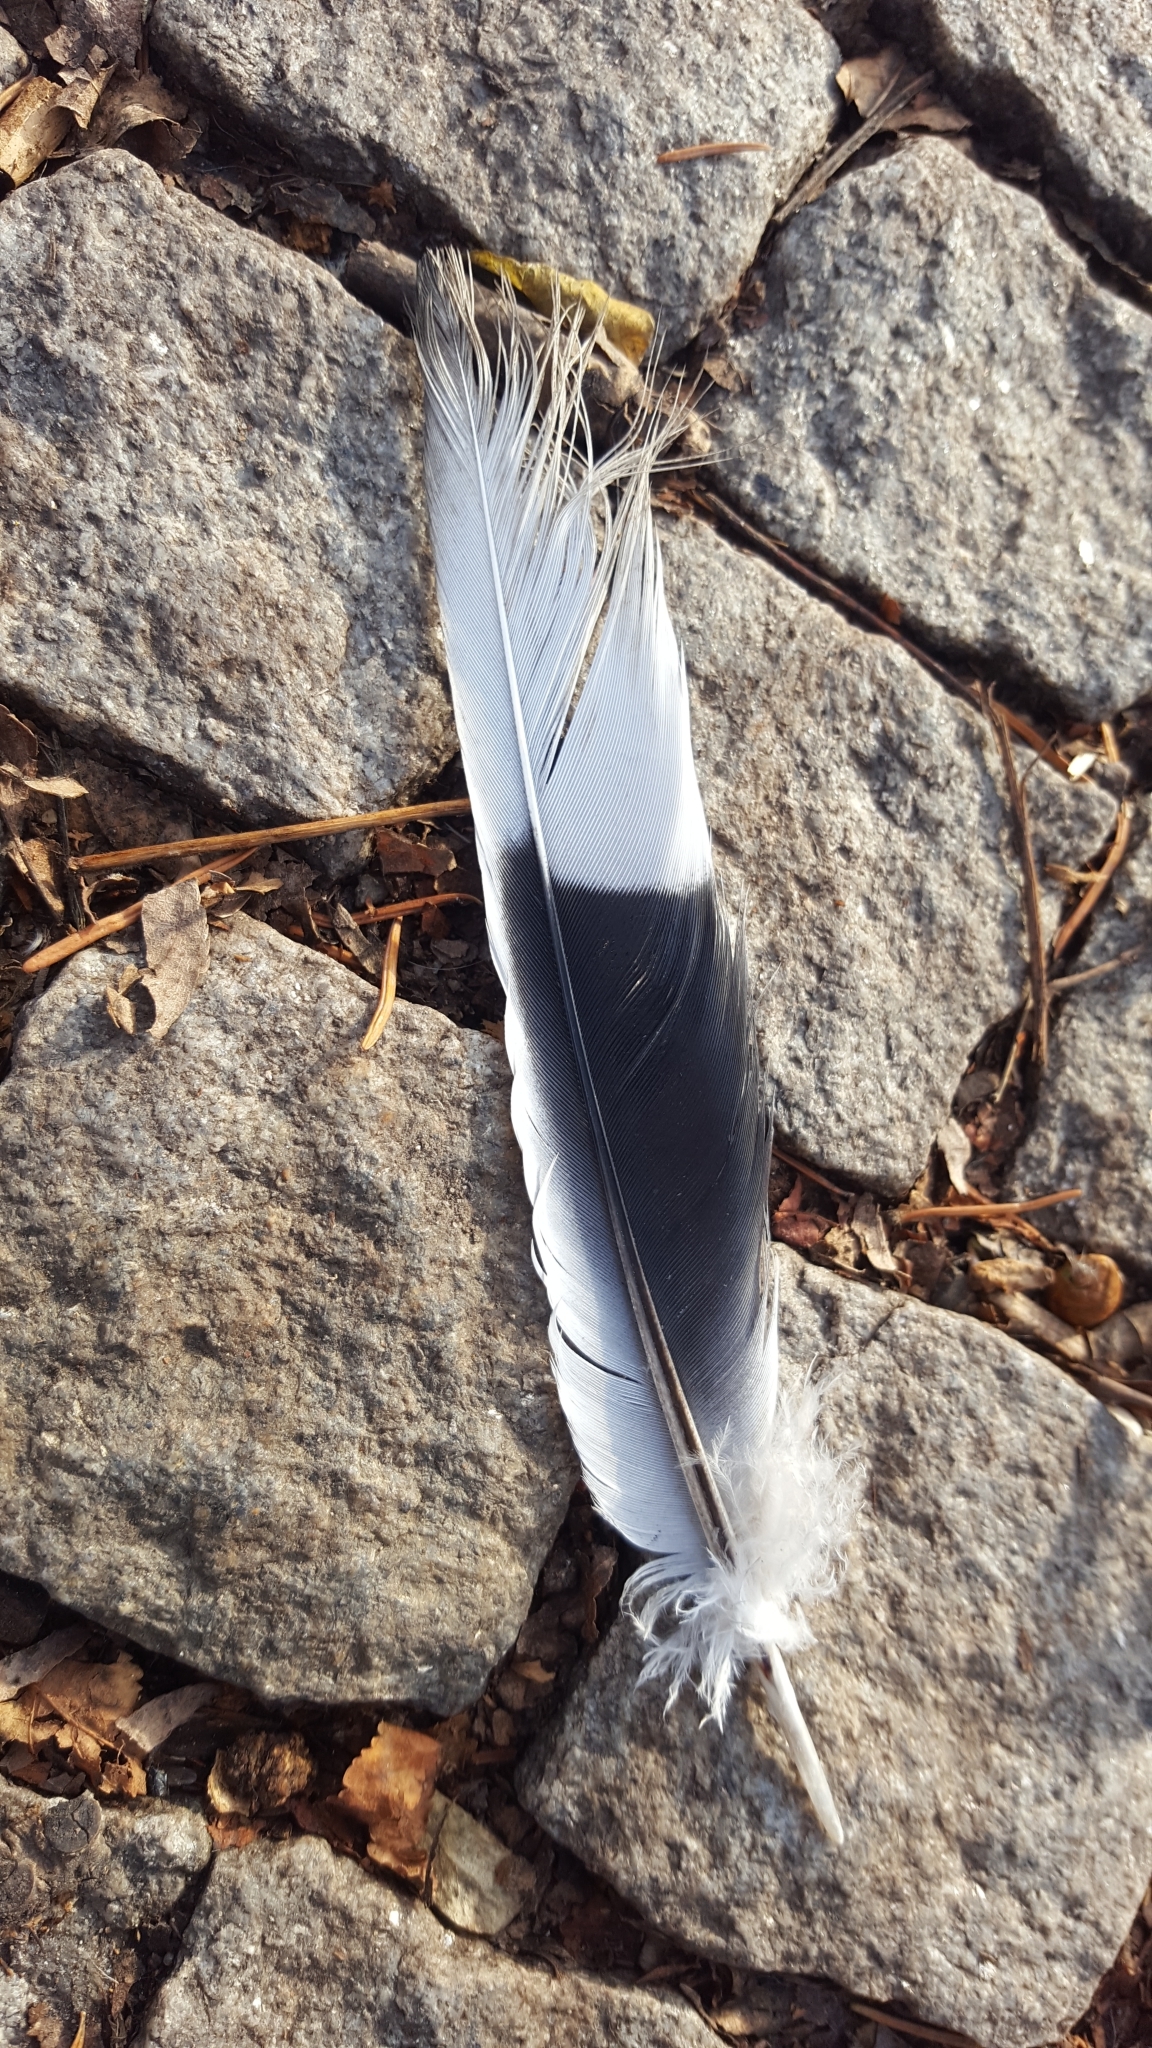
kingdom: Animalia
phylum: Chordata
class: Aves
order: Columbiformes
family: Columbidae
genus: Streptopelia
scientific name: Streptopelia decaocto
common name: Eurasian collared dove
